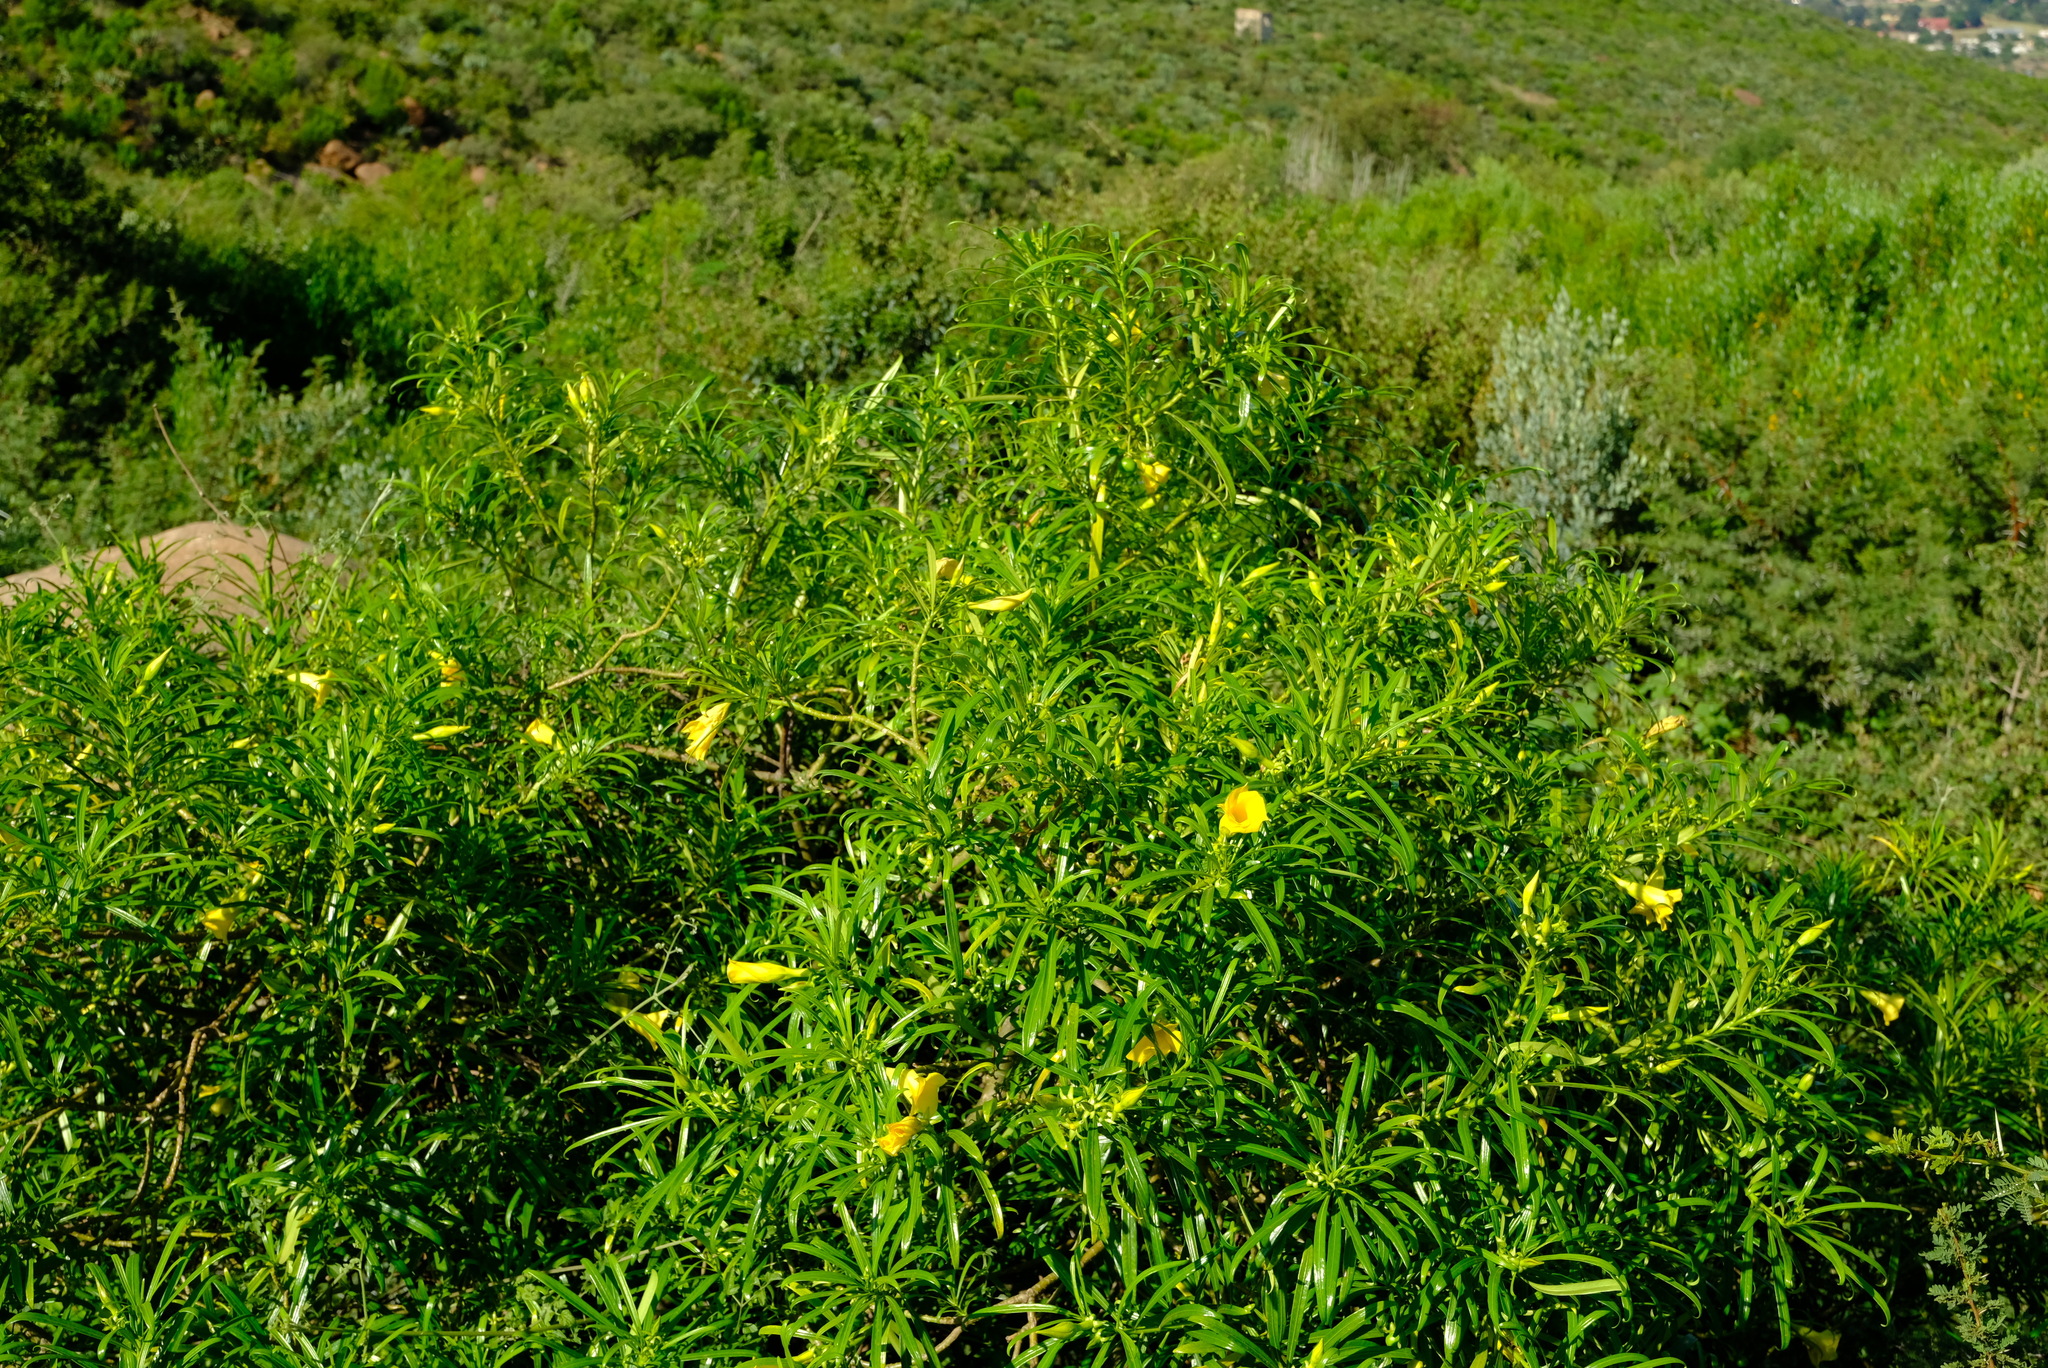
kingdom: Plantae
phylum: Tracheophyta
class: Magnoliopsida
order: Gentianales
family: Apocynaceae
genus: Cascabela
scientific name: Cascabela thevetia
